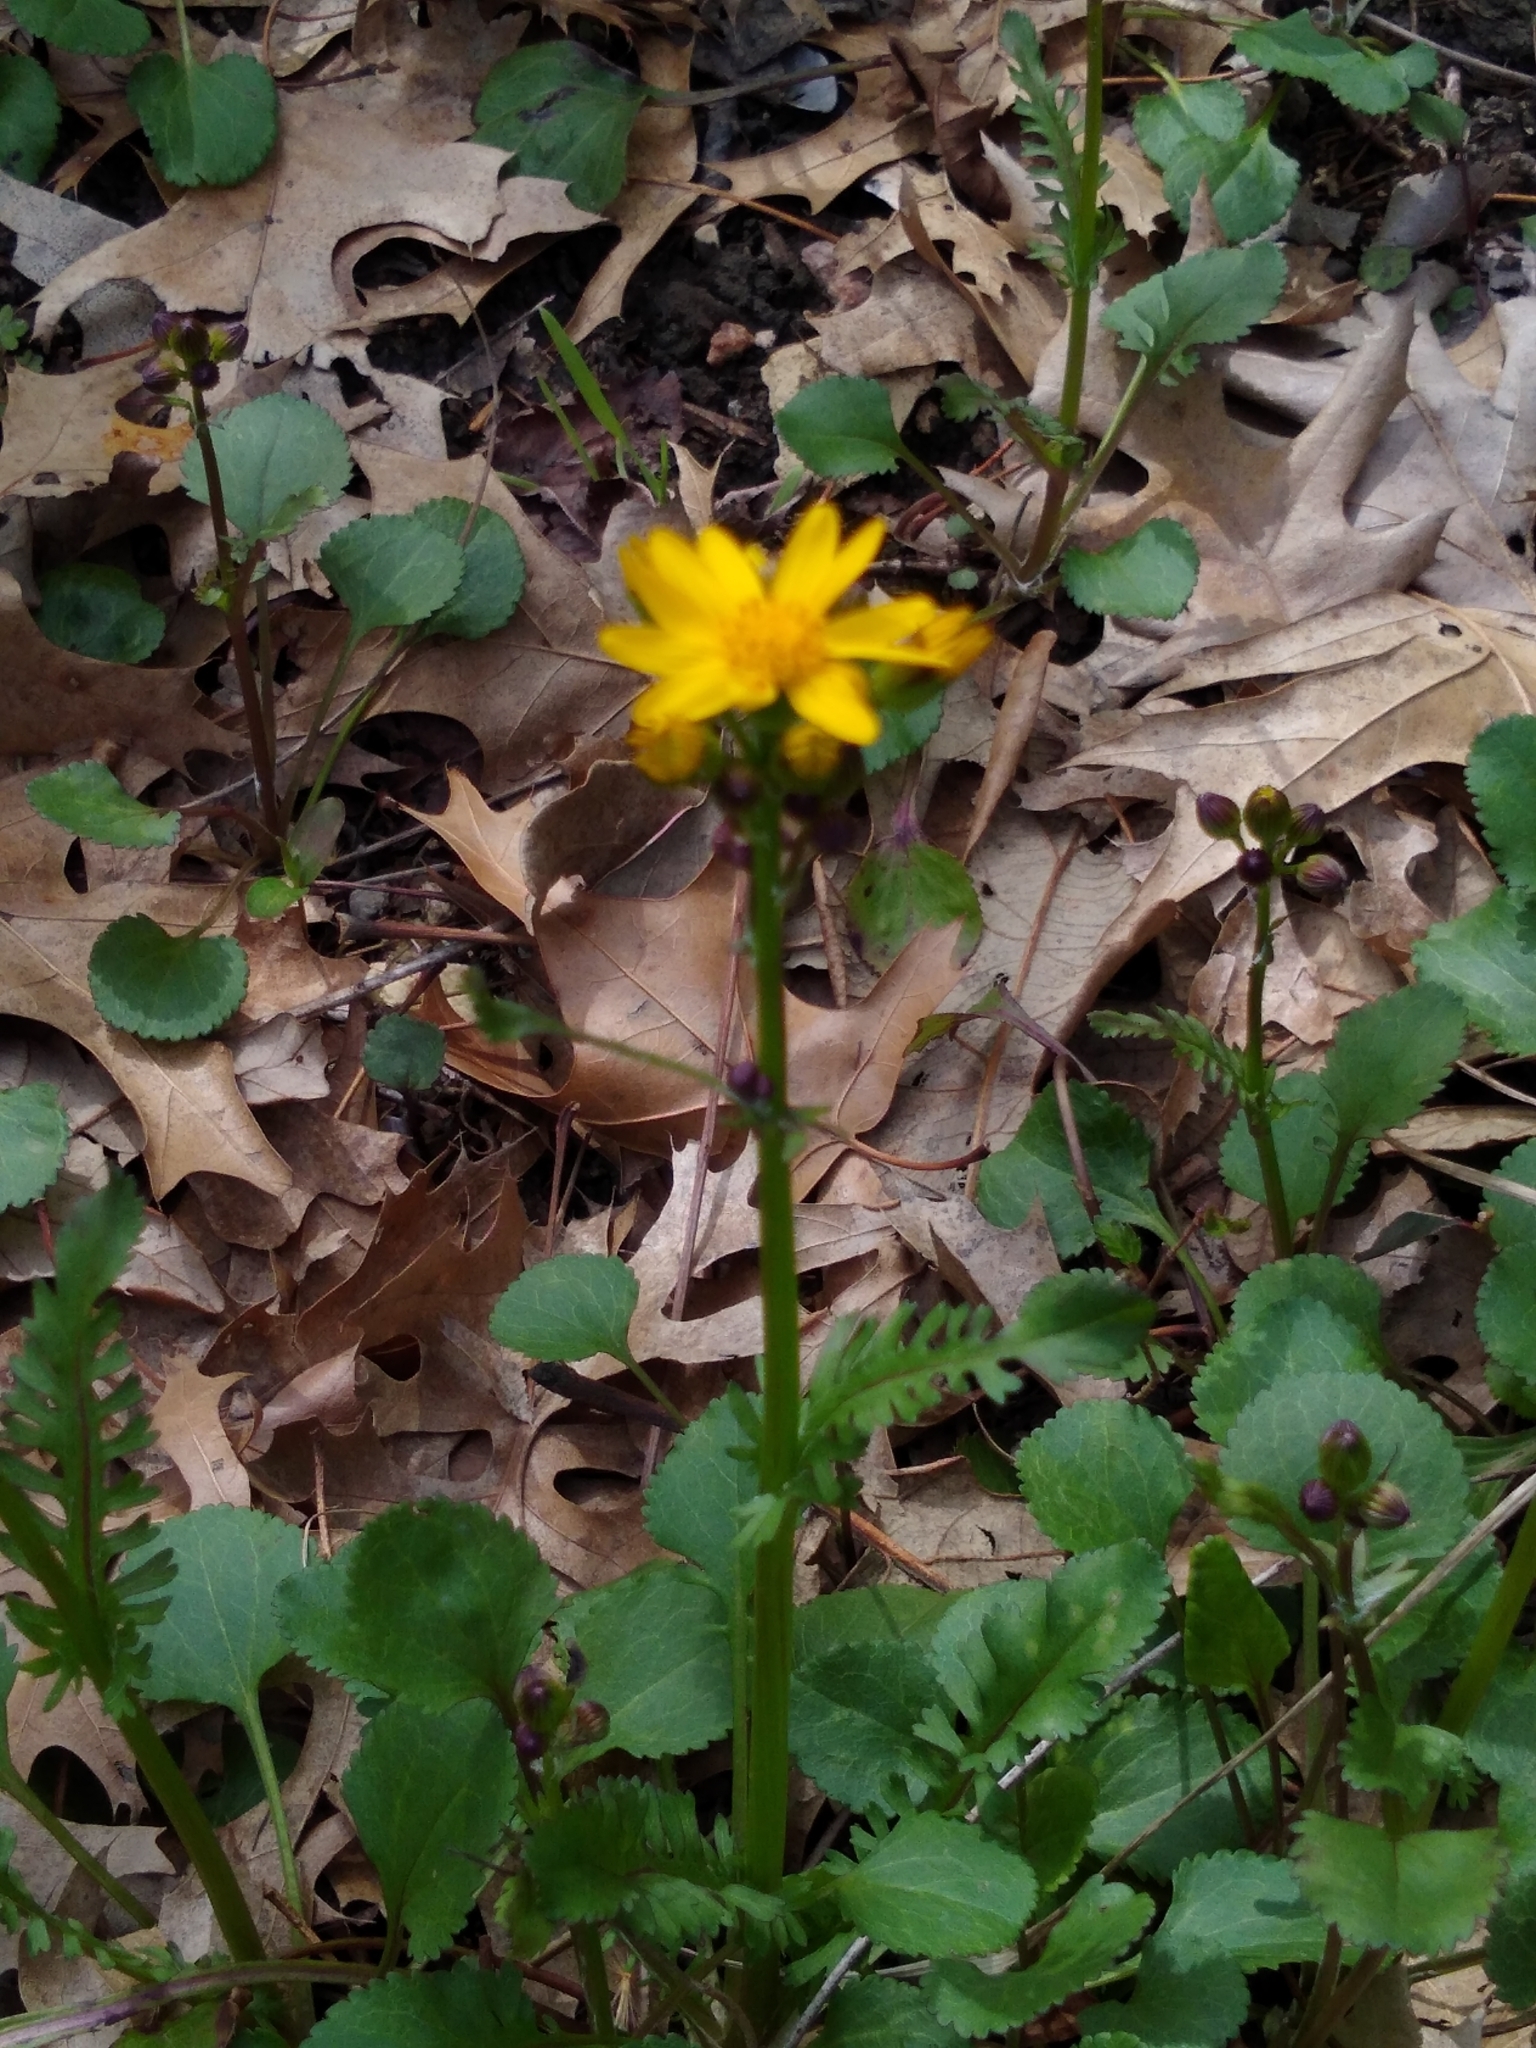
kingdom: Plantae
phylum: Tracheophyta
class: Magnoliopsida
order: Asterales
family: Asteraceae
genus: Packera
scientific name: Packera obovata
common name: Round-leaf ragwort
